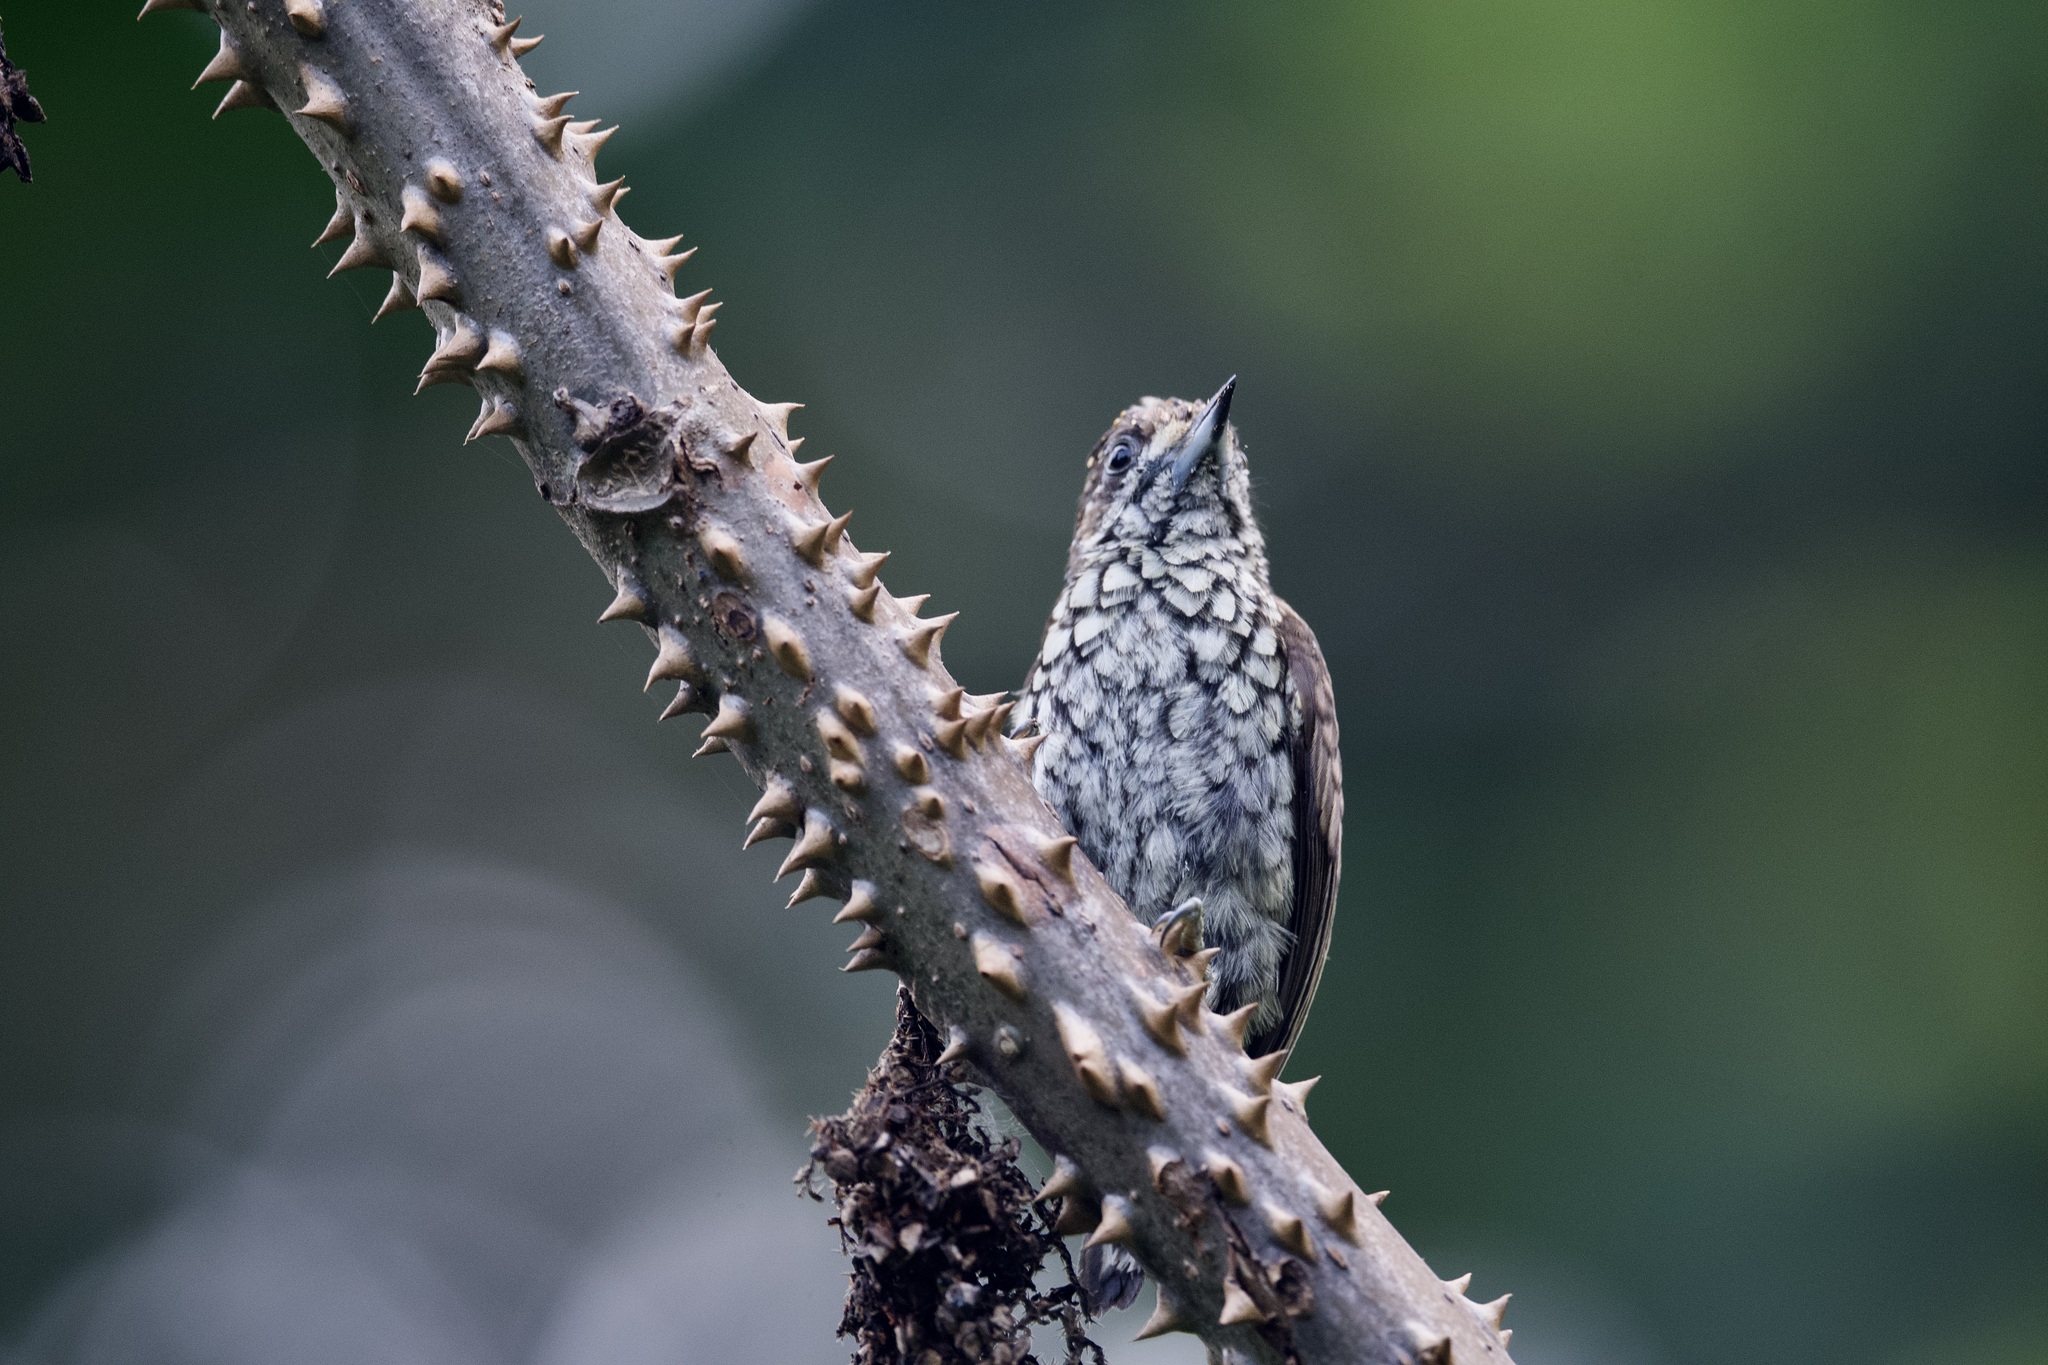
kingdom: Animalia
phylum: Chordata
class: Aves
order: Piciformes
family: Picidae
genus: Picumnus
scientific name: Picumnus squamulatus
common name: Scaled piculet
